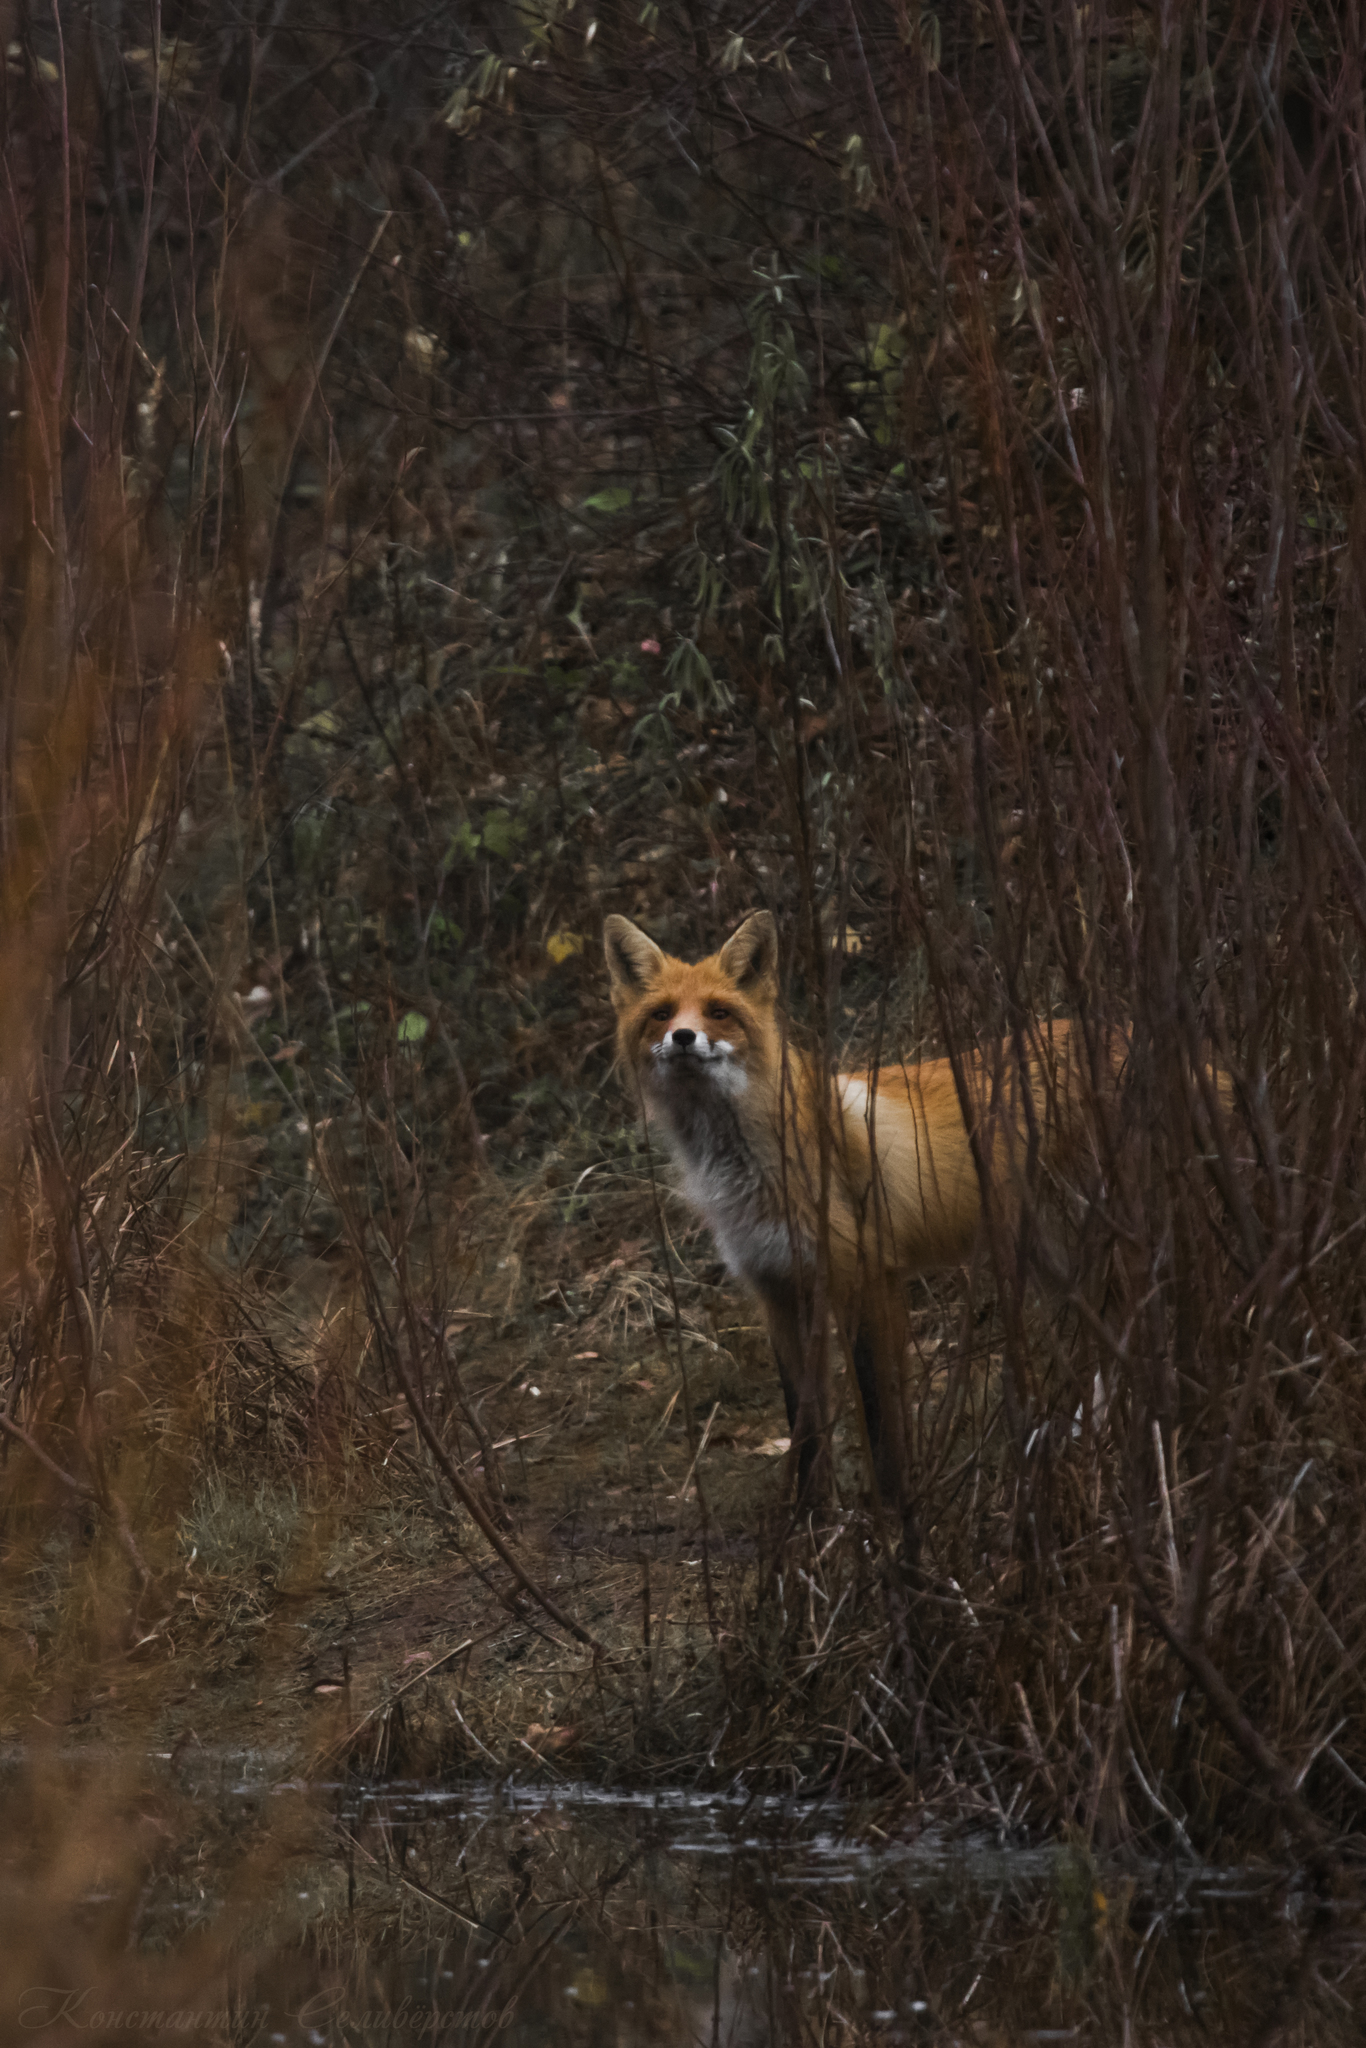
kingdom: Animalia
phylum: Chordata
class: Mammalia
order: Carnivora
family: Canidae
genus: Vulpes
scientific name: Vulpes vulpes
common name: Red fox
